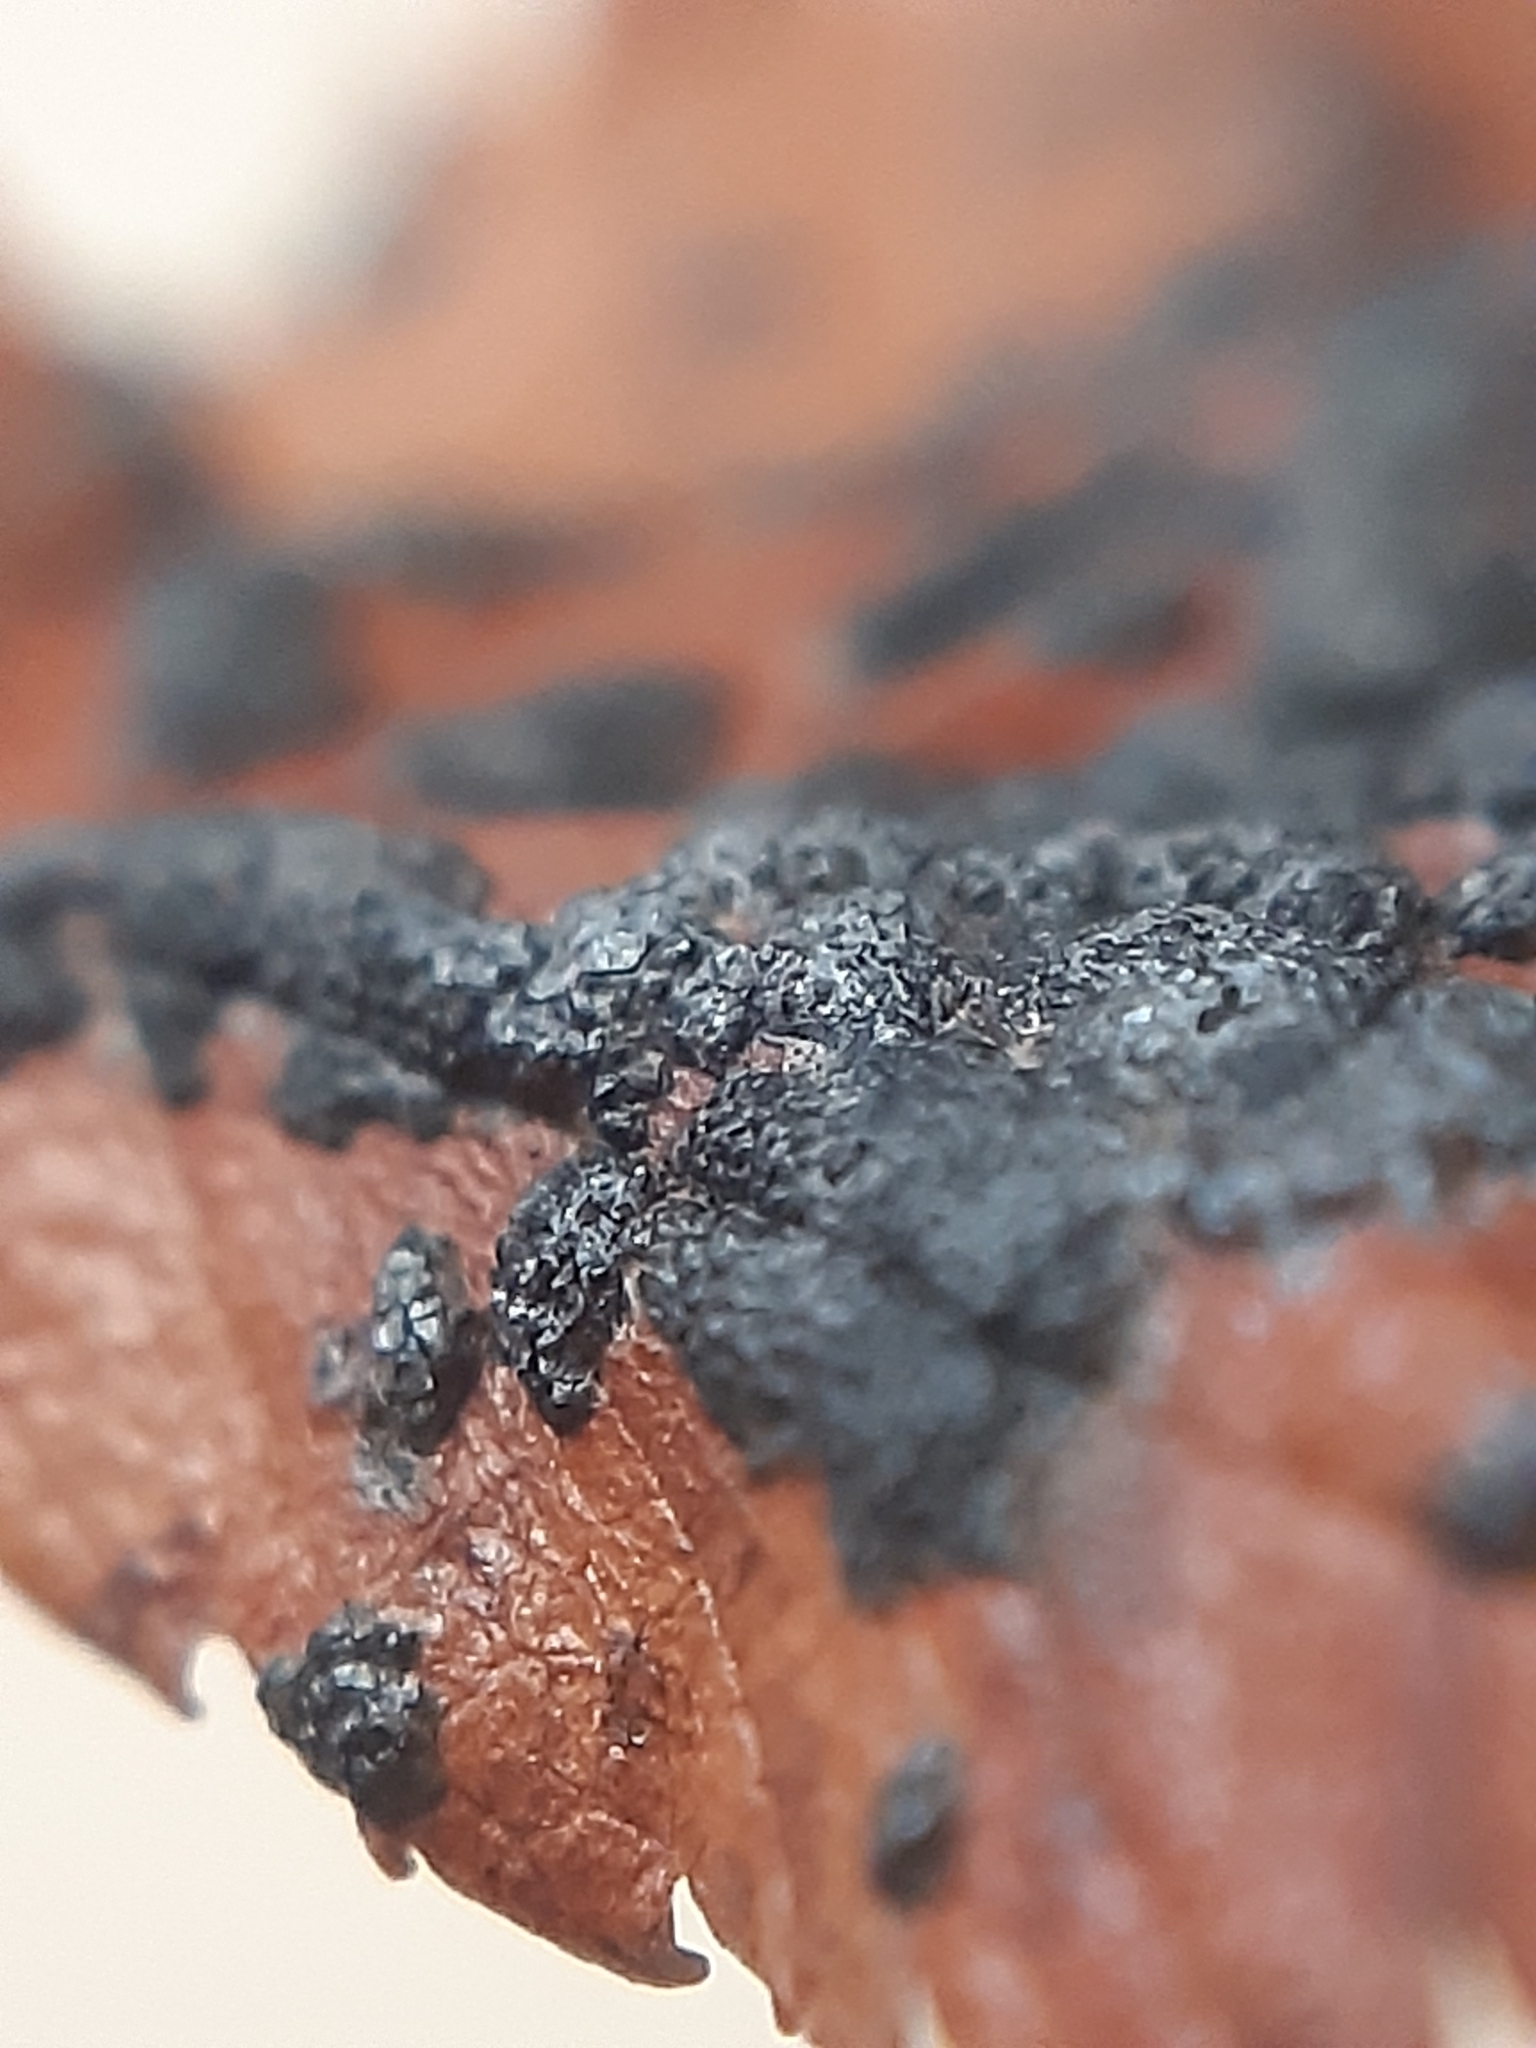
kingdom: Fungi
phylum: Ascomycota
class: Dothideomycetes
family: Polystomellaceae
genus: Dothidella
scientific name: Dothidella ulmi
